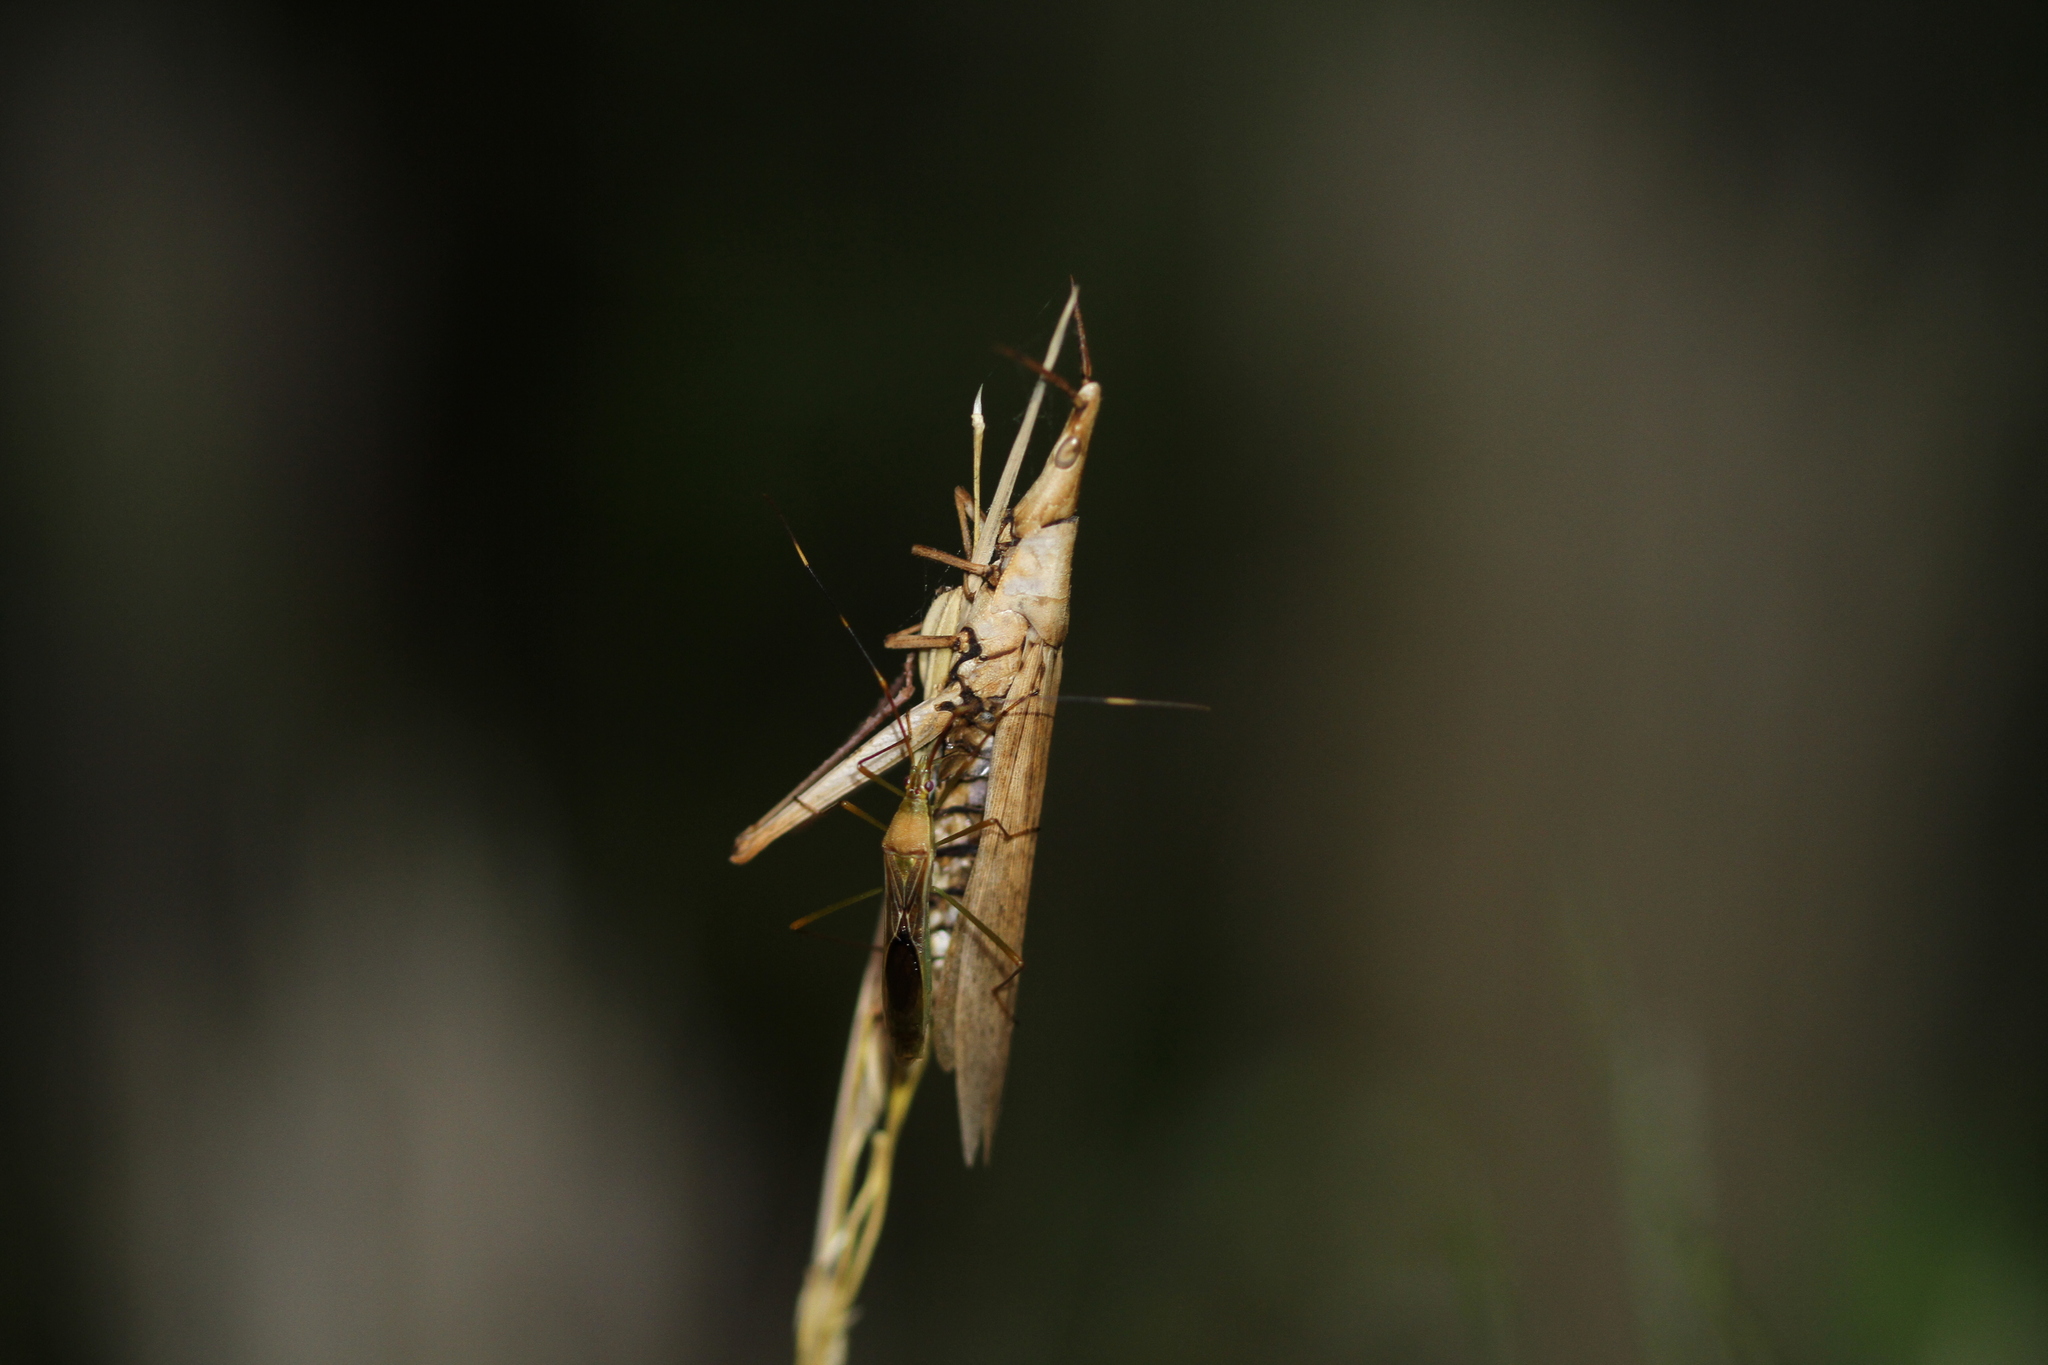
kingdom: Animalia
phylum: Arthropoda
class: Insecta
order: Hemiptera
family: Alydidae
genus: Leptocorisa
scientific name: Leptocorisa oratoria
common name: Rice ear bug
